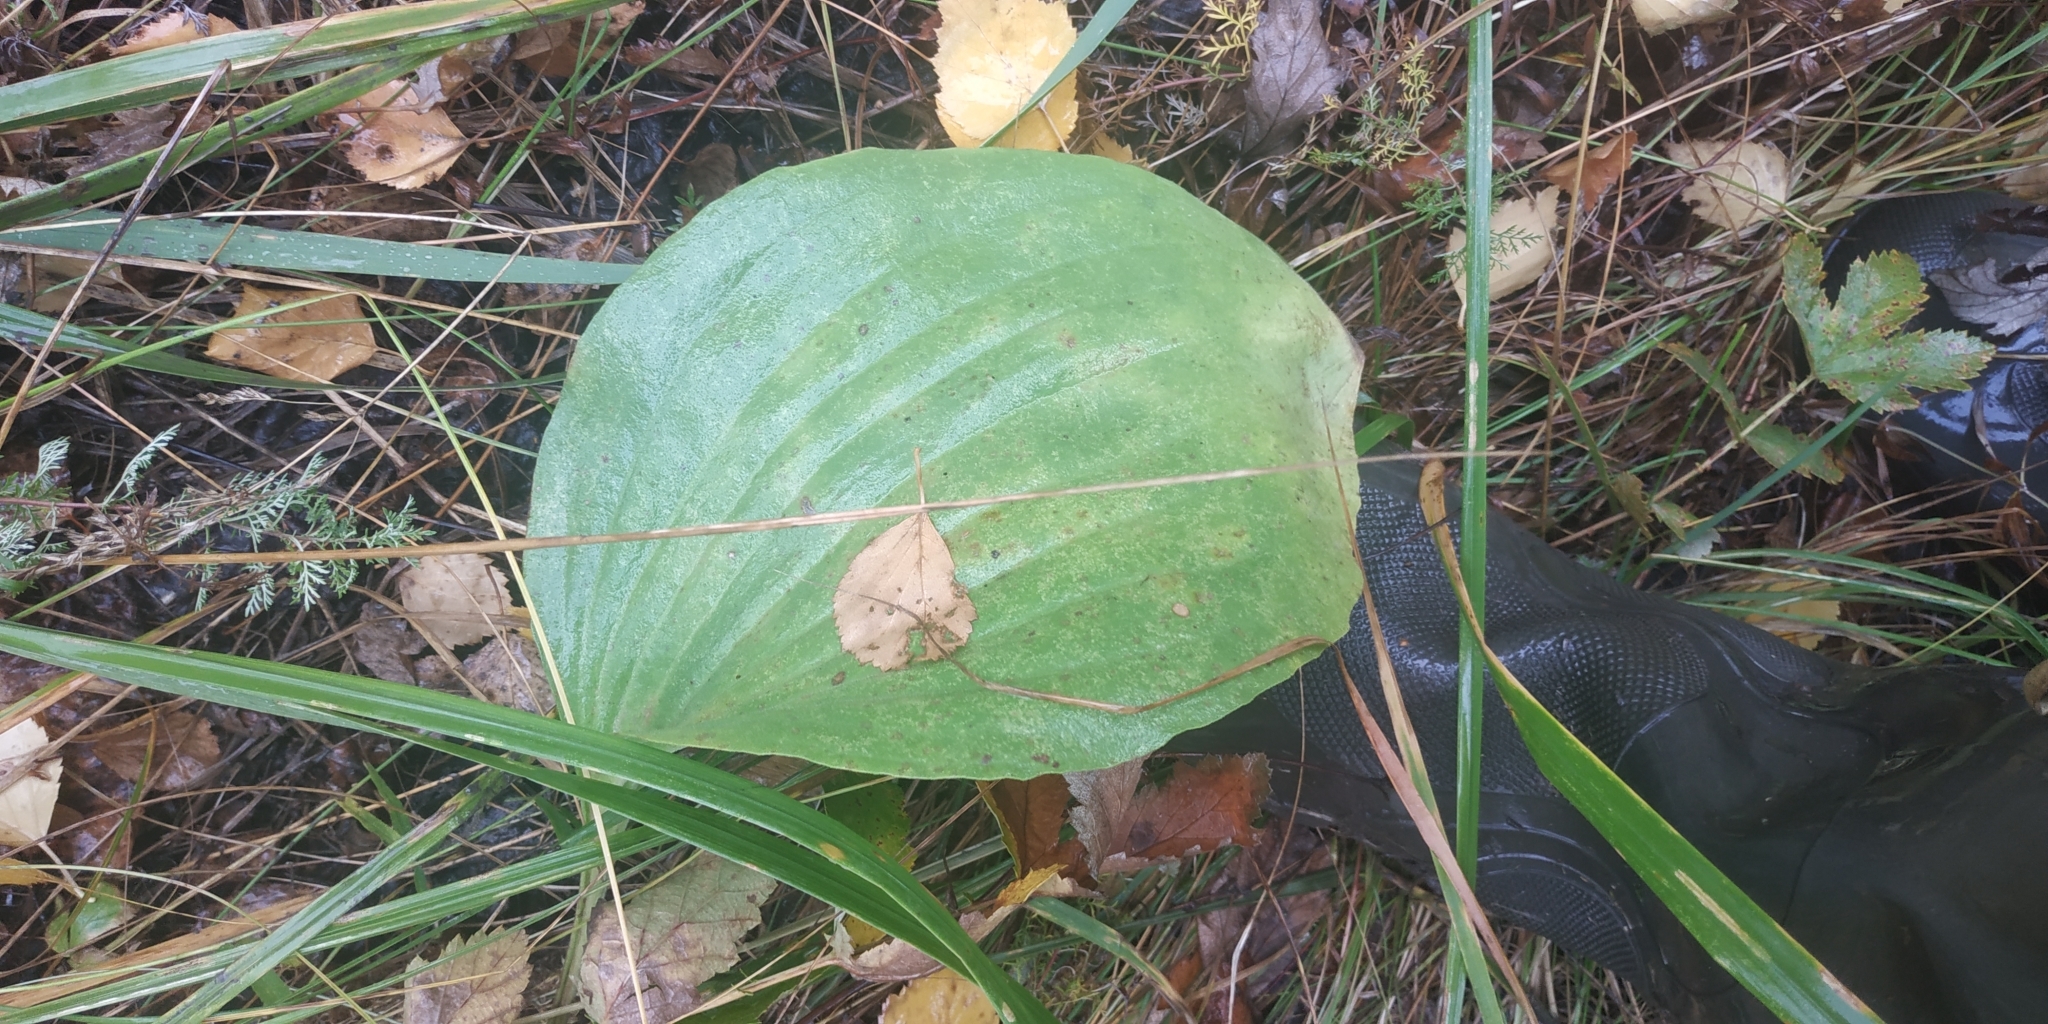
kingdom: Plantae
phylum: Tracheophyta
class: Magnoliopsida
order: Lamiales
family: Plantaginaceae
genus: Plantago
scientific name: Plantago maxima
